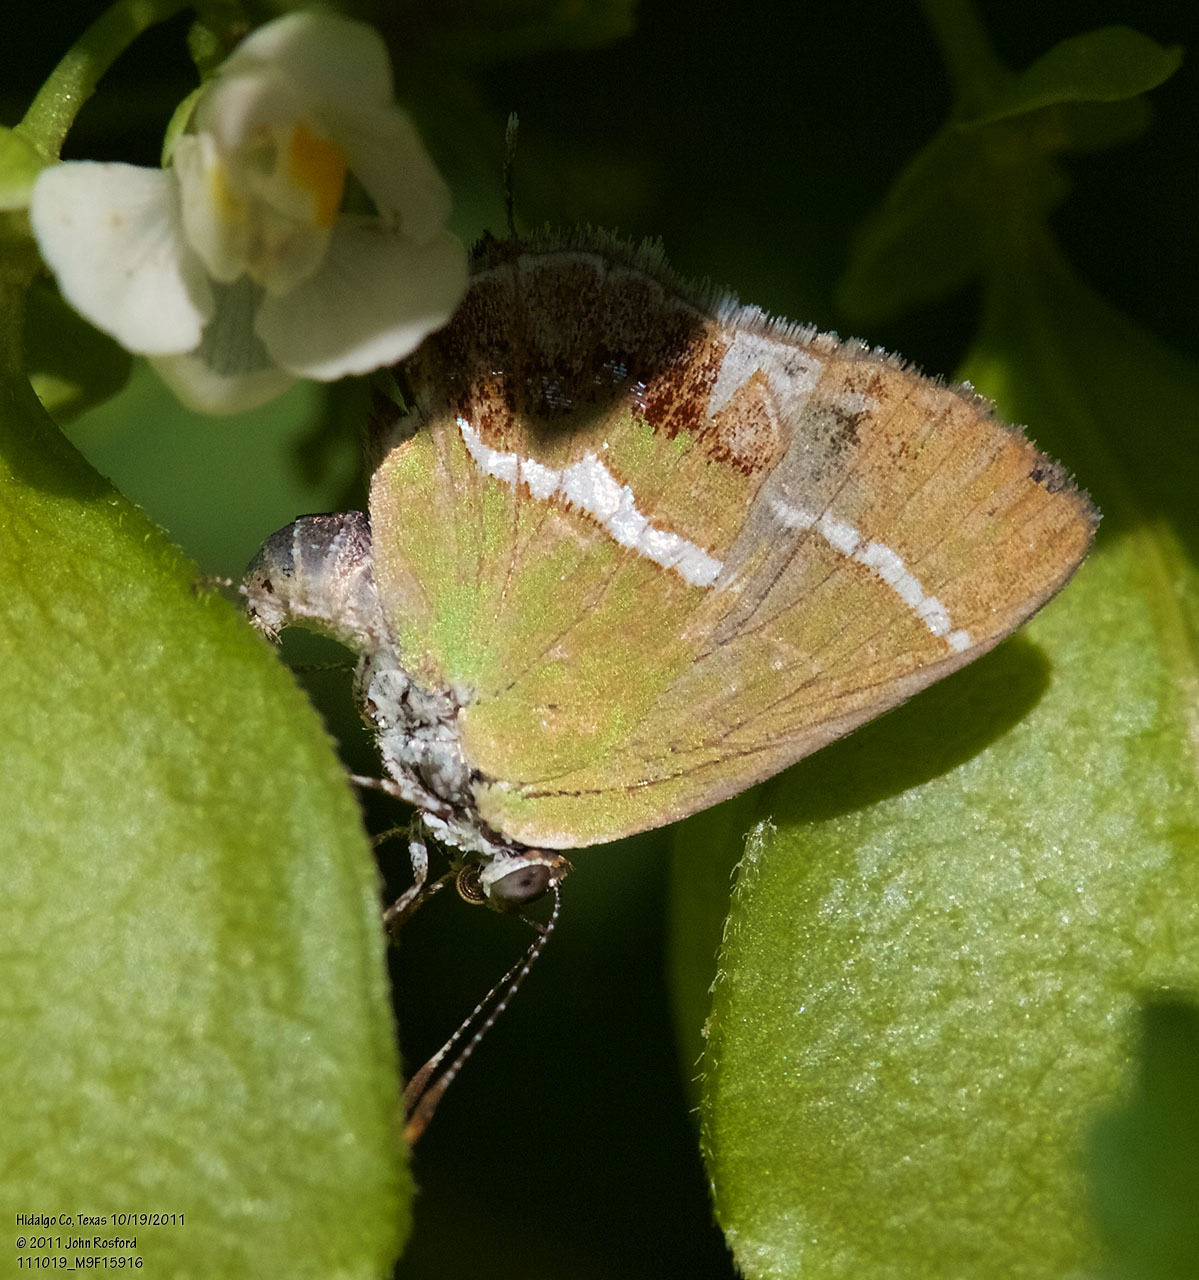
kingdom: Animalia
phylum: Arthropoda
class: Insecta
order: Lepidoptera
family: Lycaenidae
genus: Chlorostrymon
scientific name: Chlorostrymon simaethis
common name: Silver-banded hairstreak
